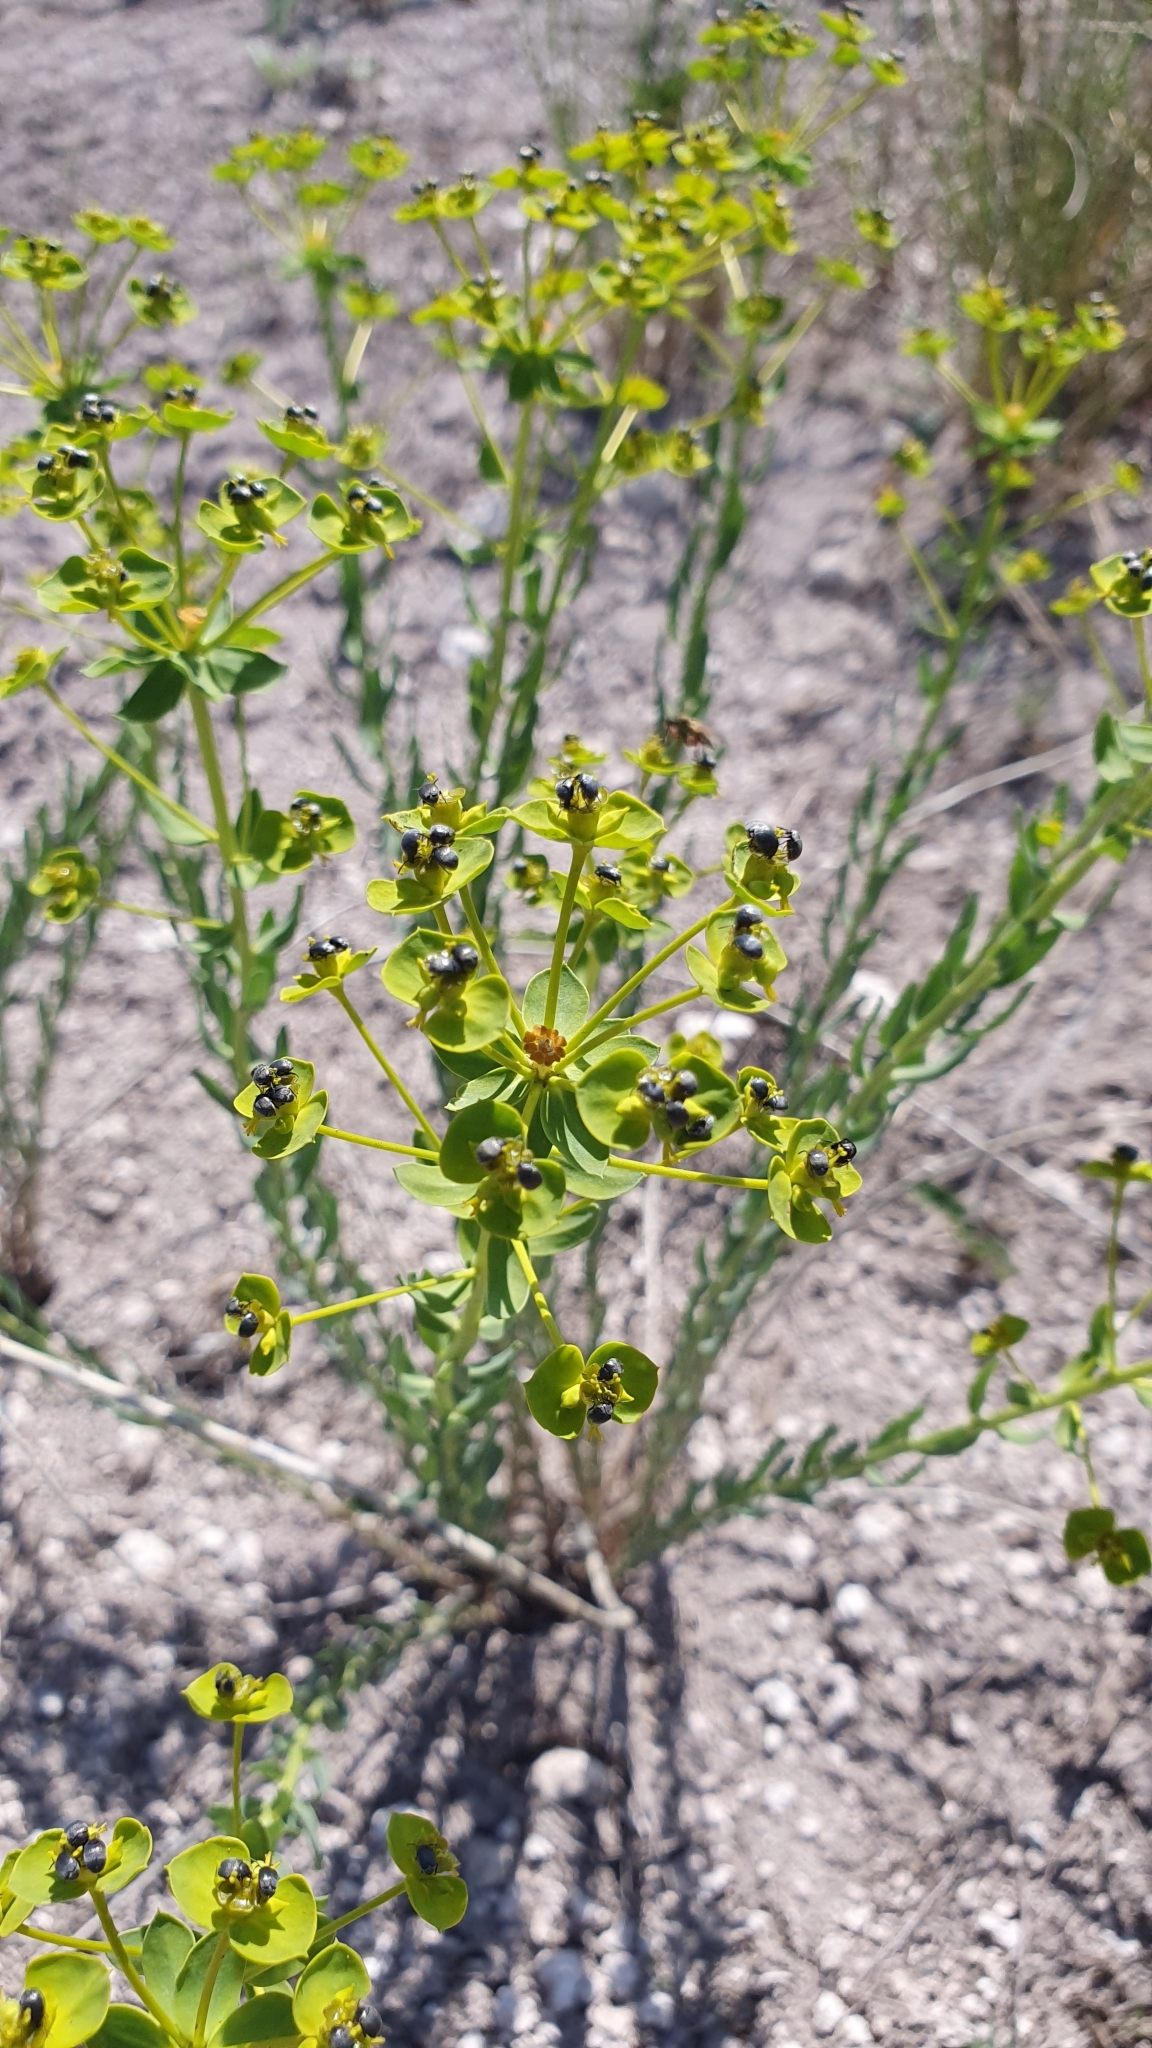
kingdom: Plantae
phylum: Tracheophyta
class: Magnoliopsida
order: Malpighiales
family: Euphorbiaceae
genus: Euphorbia
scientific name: Euphorbia seguieriana
